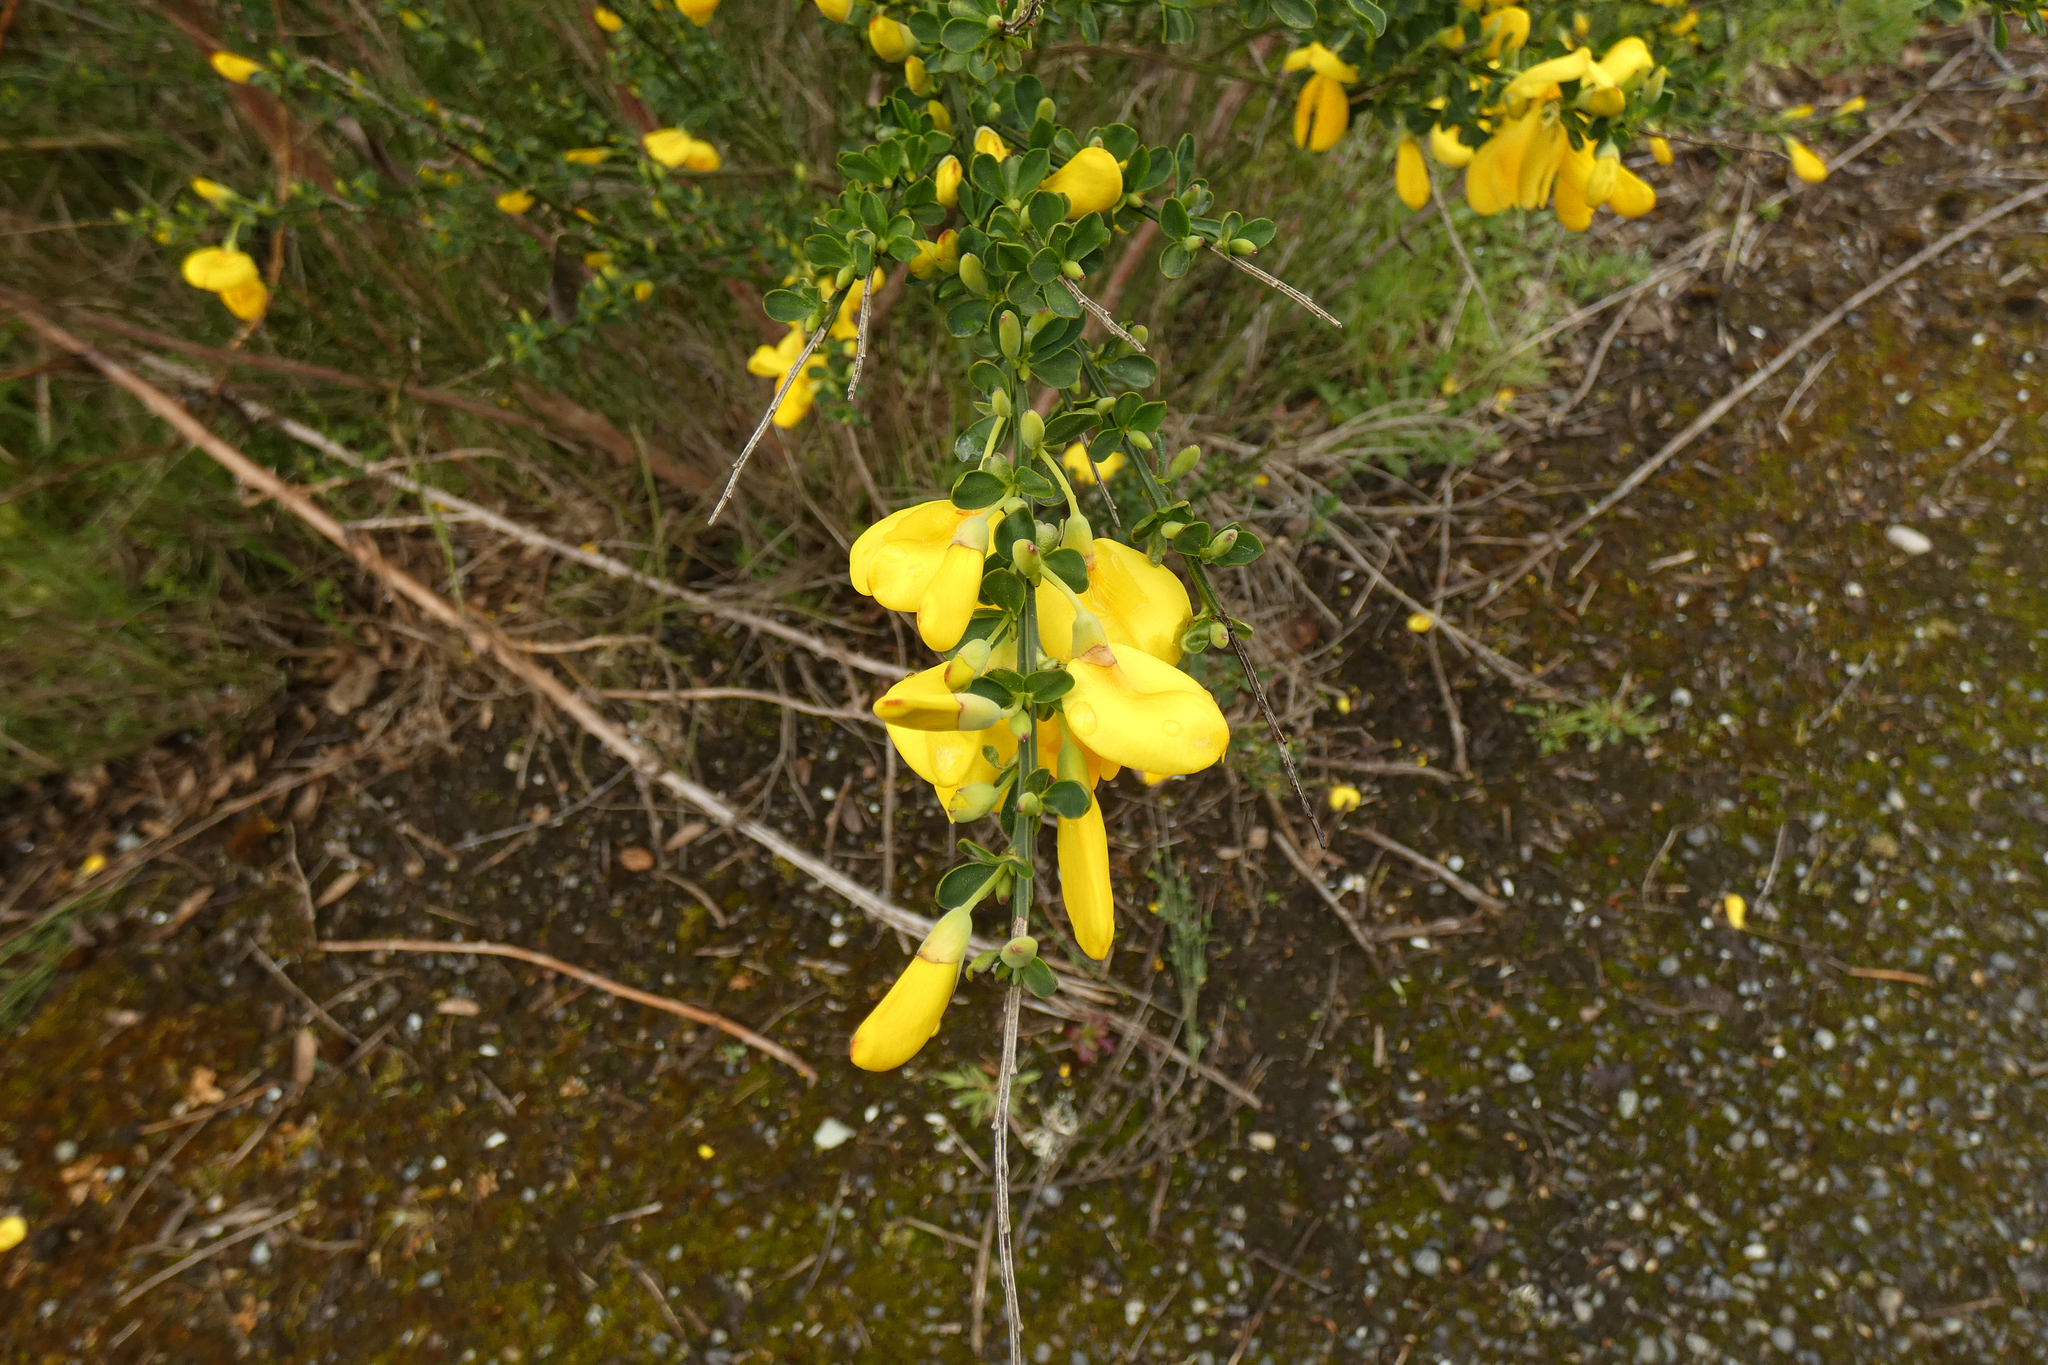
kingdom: Plantae
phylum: Tracheophyta
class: Magnoliopsida
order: Fabales
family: Fabaceae
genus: Cytisus
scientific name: Cytisus scoparius
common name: Scotch broom
